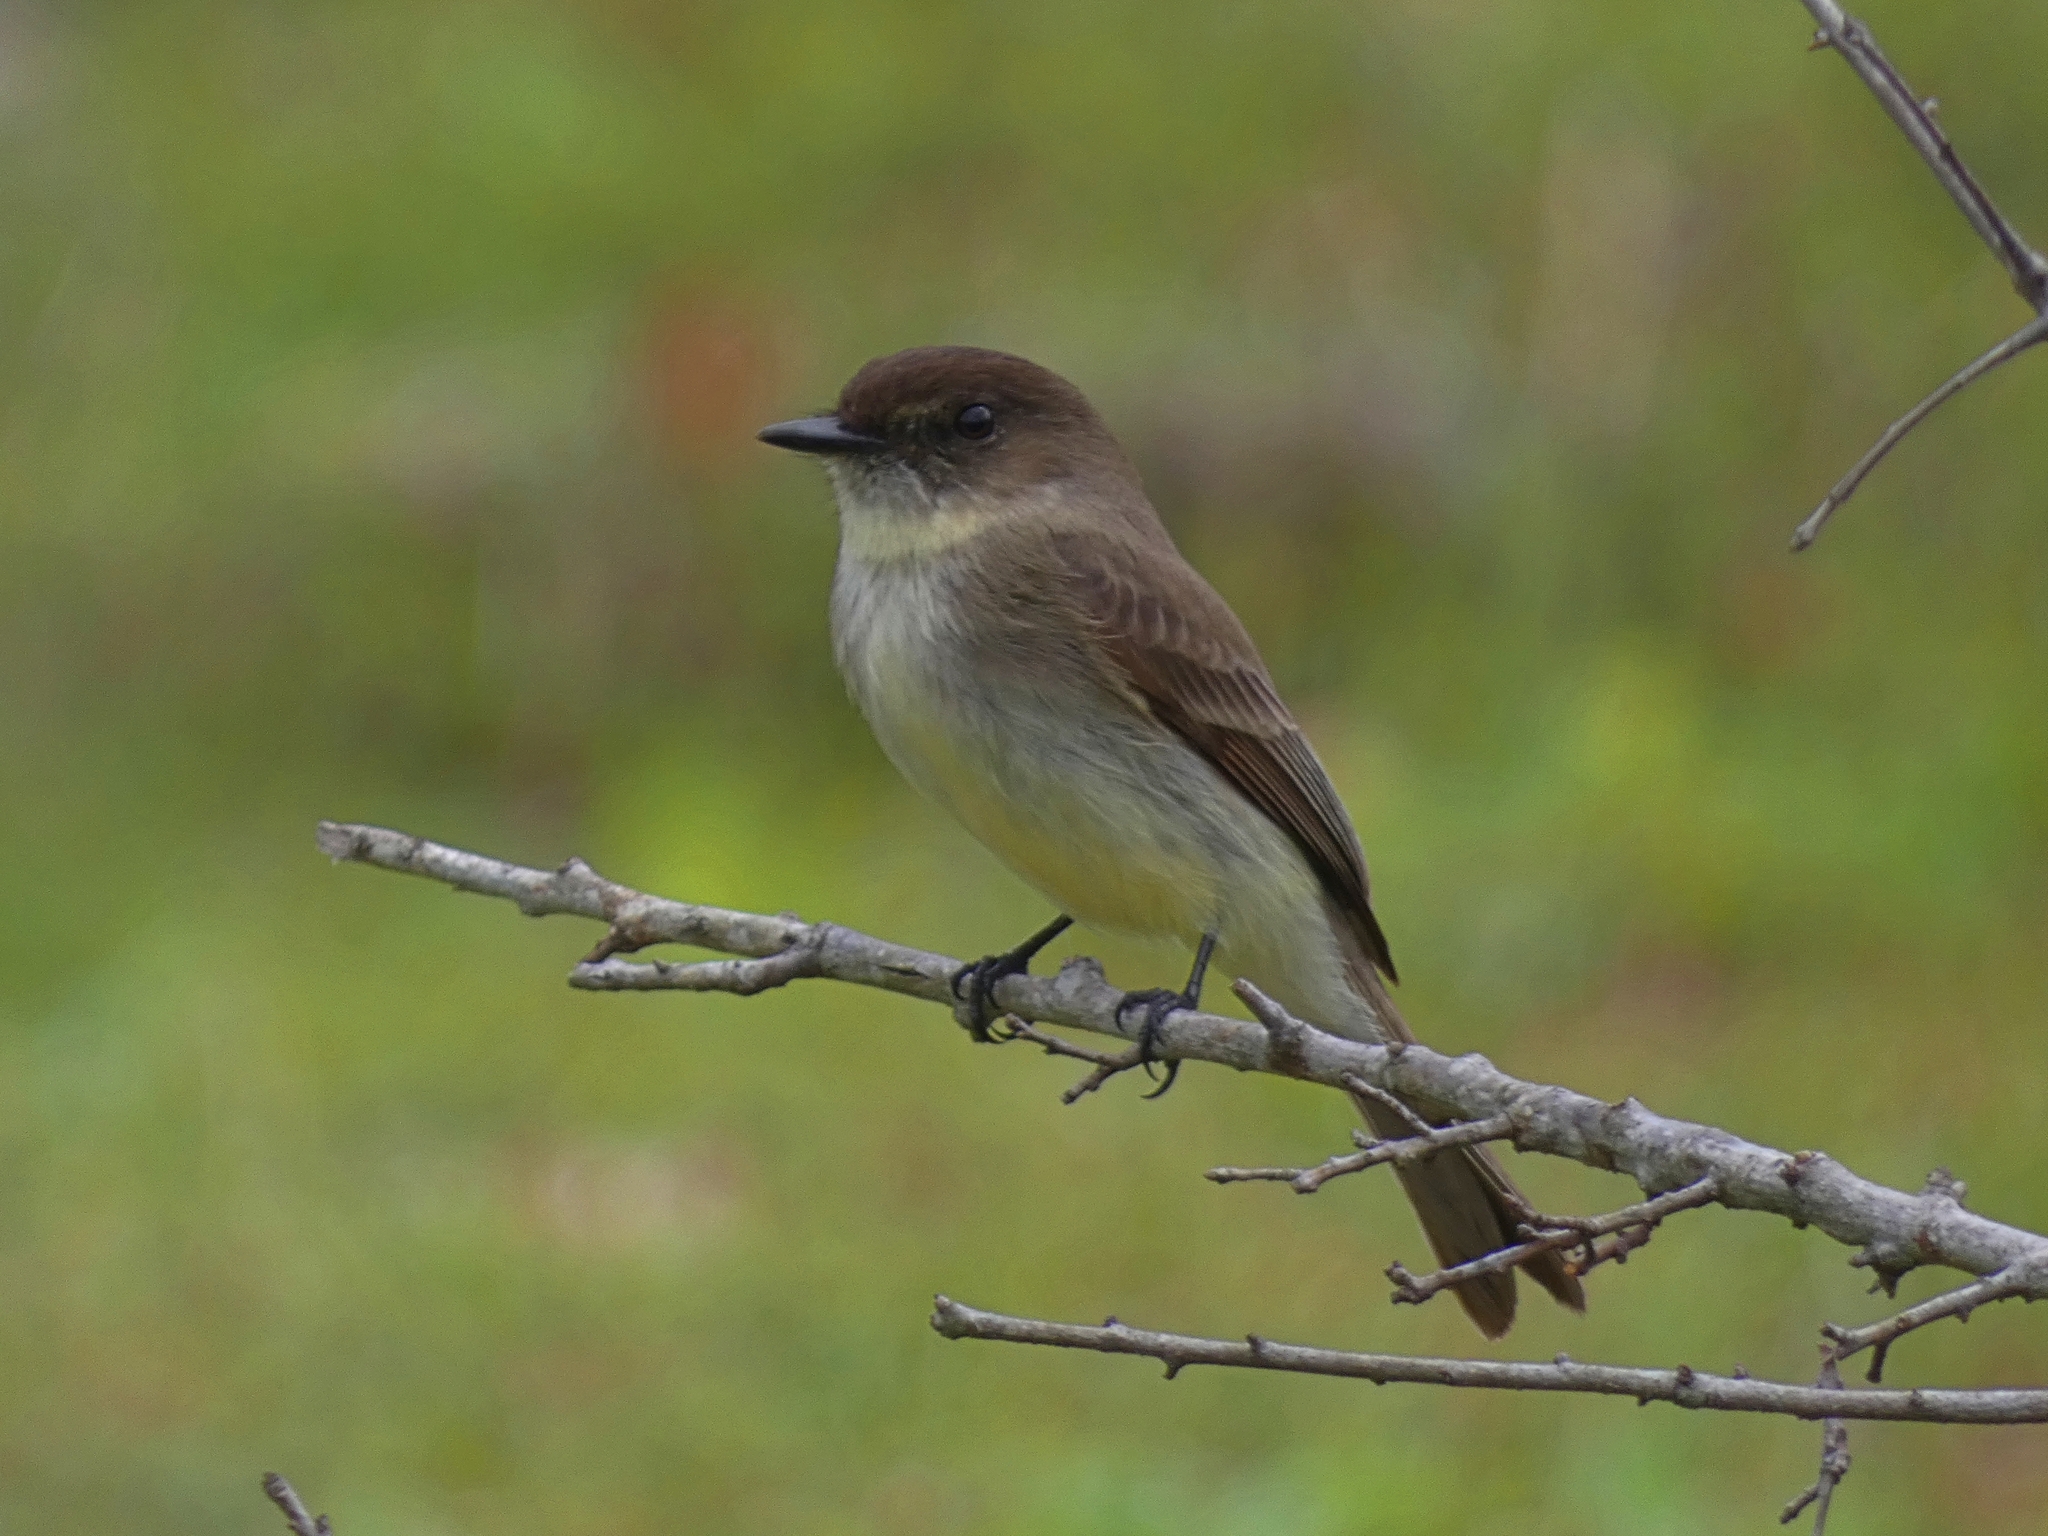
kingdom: Animalia
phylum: Chordata
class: Aves
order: Passeriformes
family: Tyrannidae
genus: Sayornis
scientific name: Sayornis phoebe
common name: Eastern phoebe
